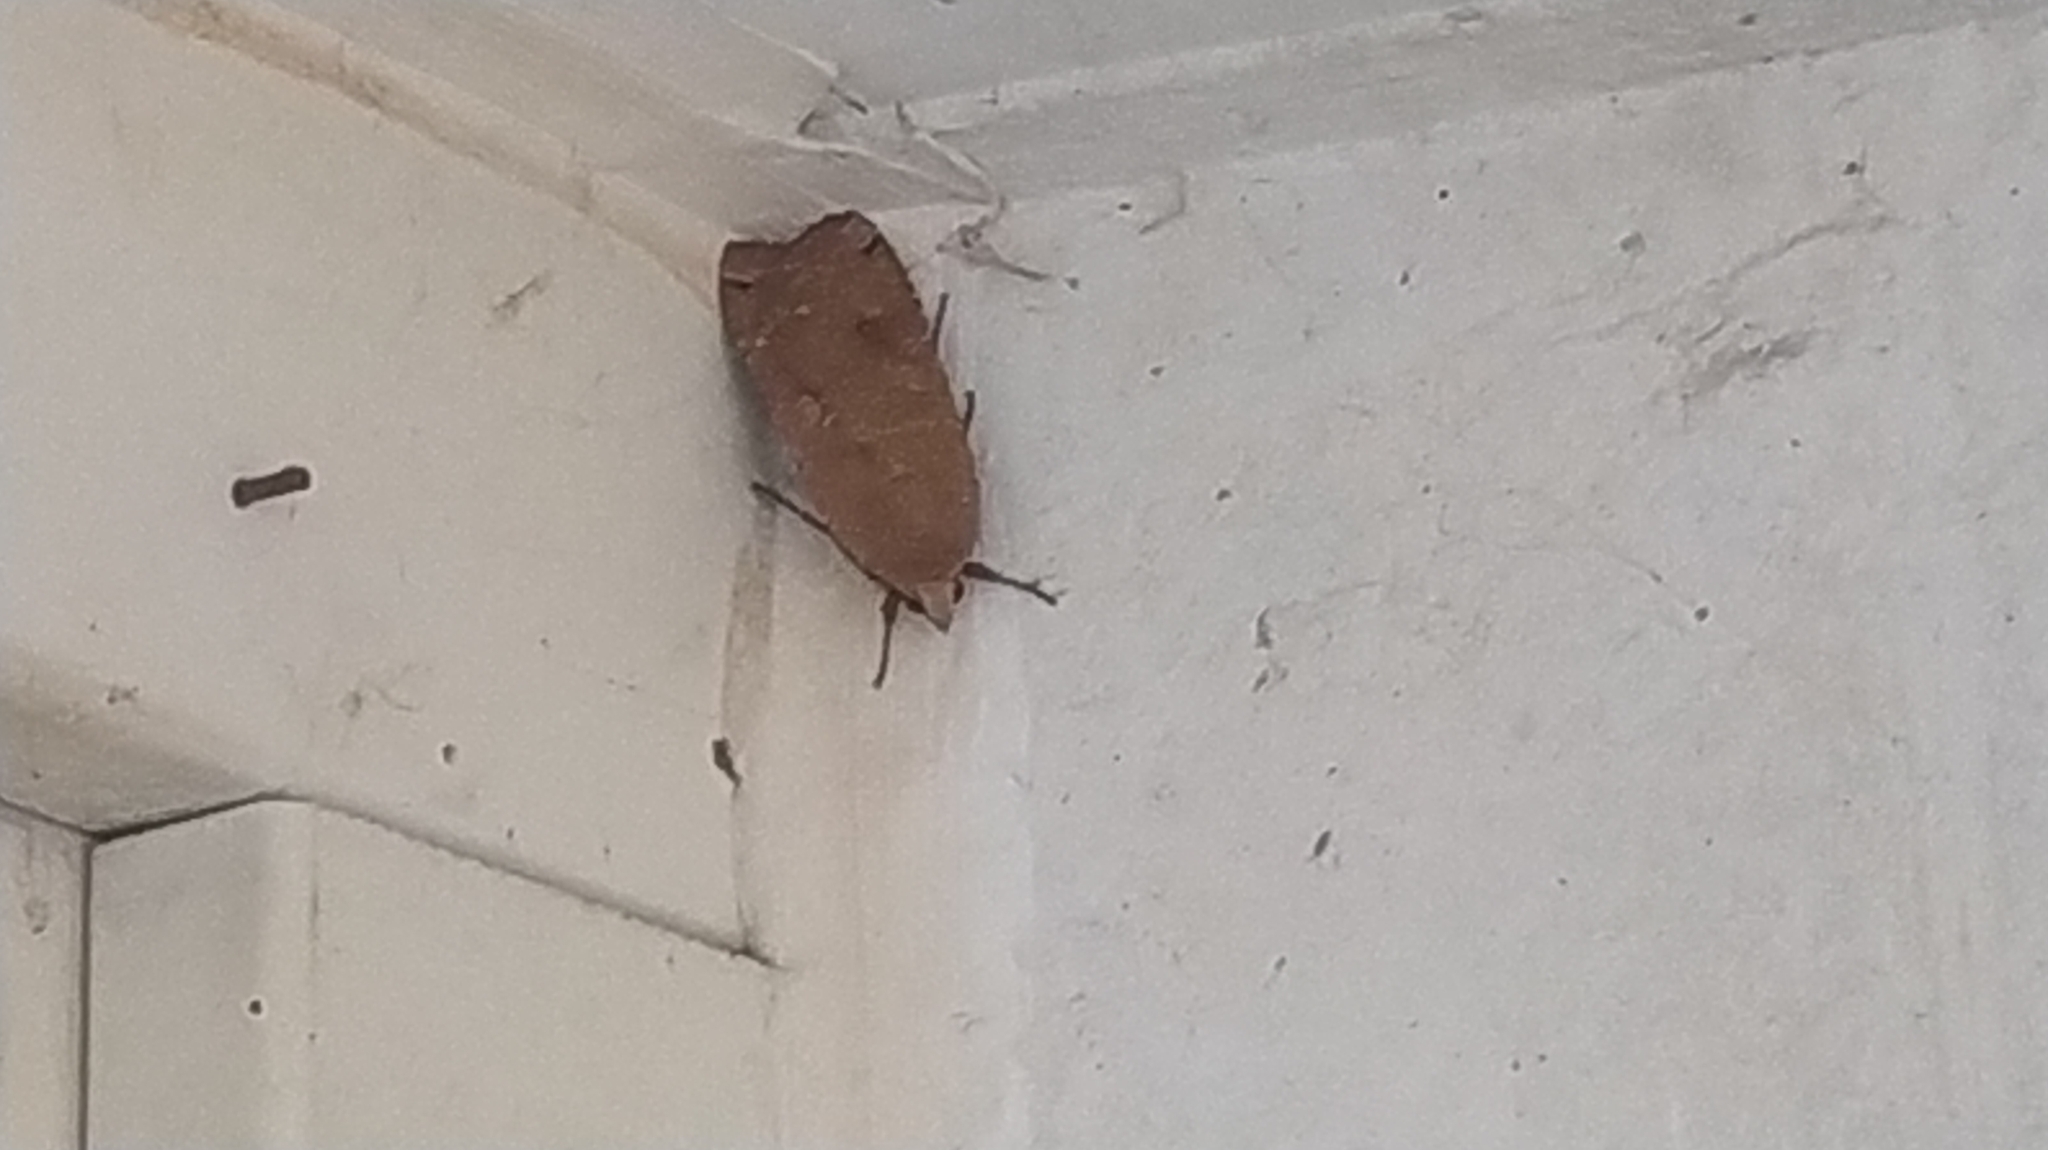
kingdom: Animalia
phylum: Arthropoda
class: Insecta
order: Lepidoptera
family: Noctuidae
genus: Noctua
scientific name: Noctua pronuba
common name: Large yellow underwing
